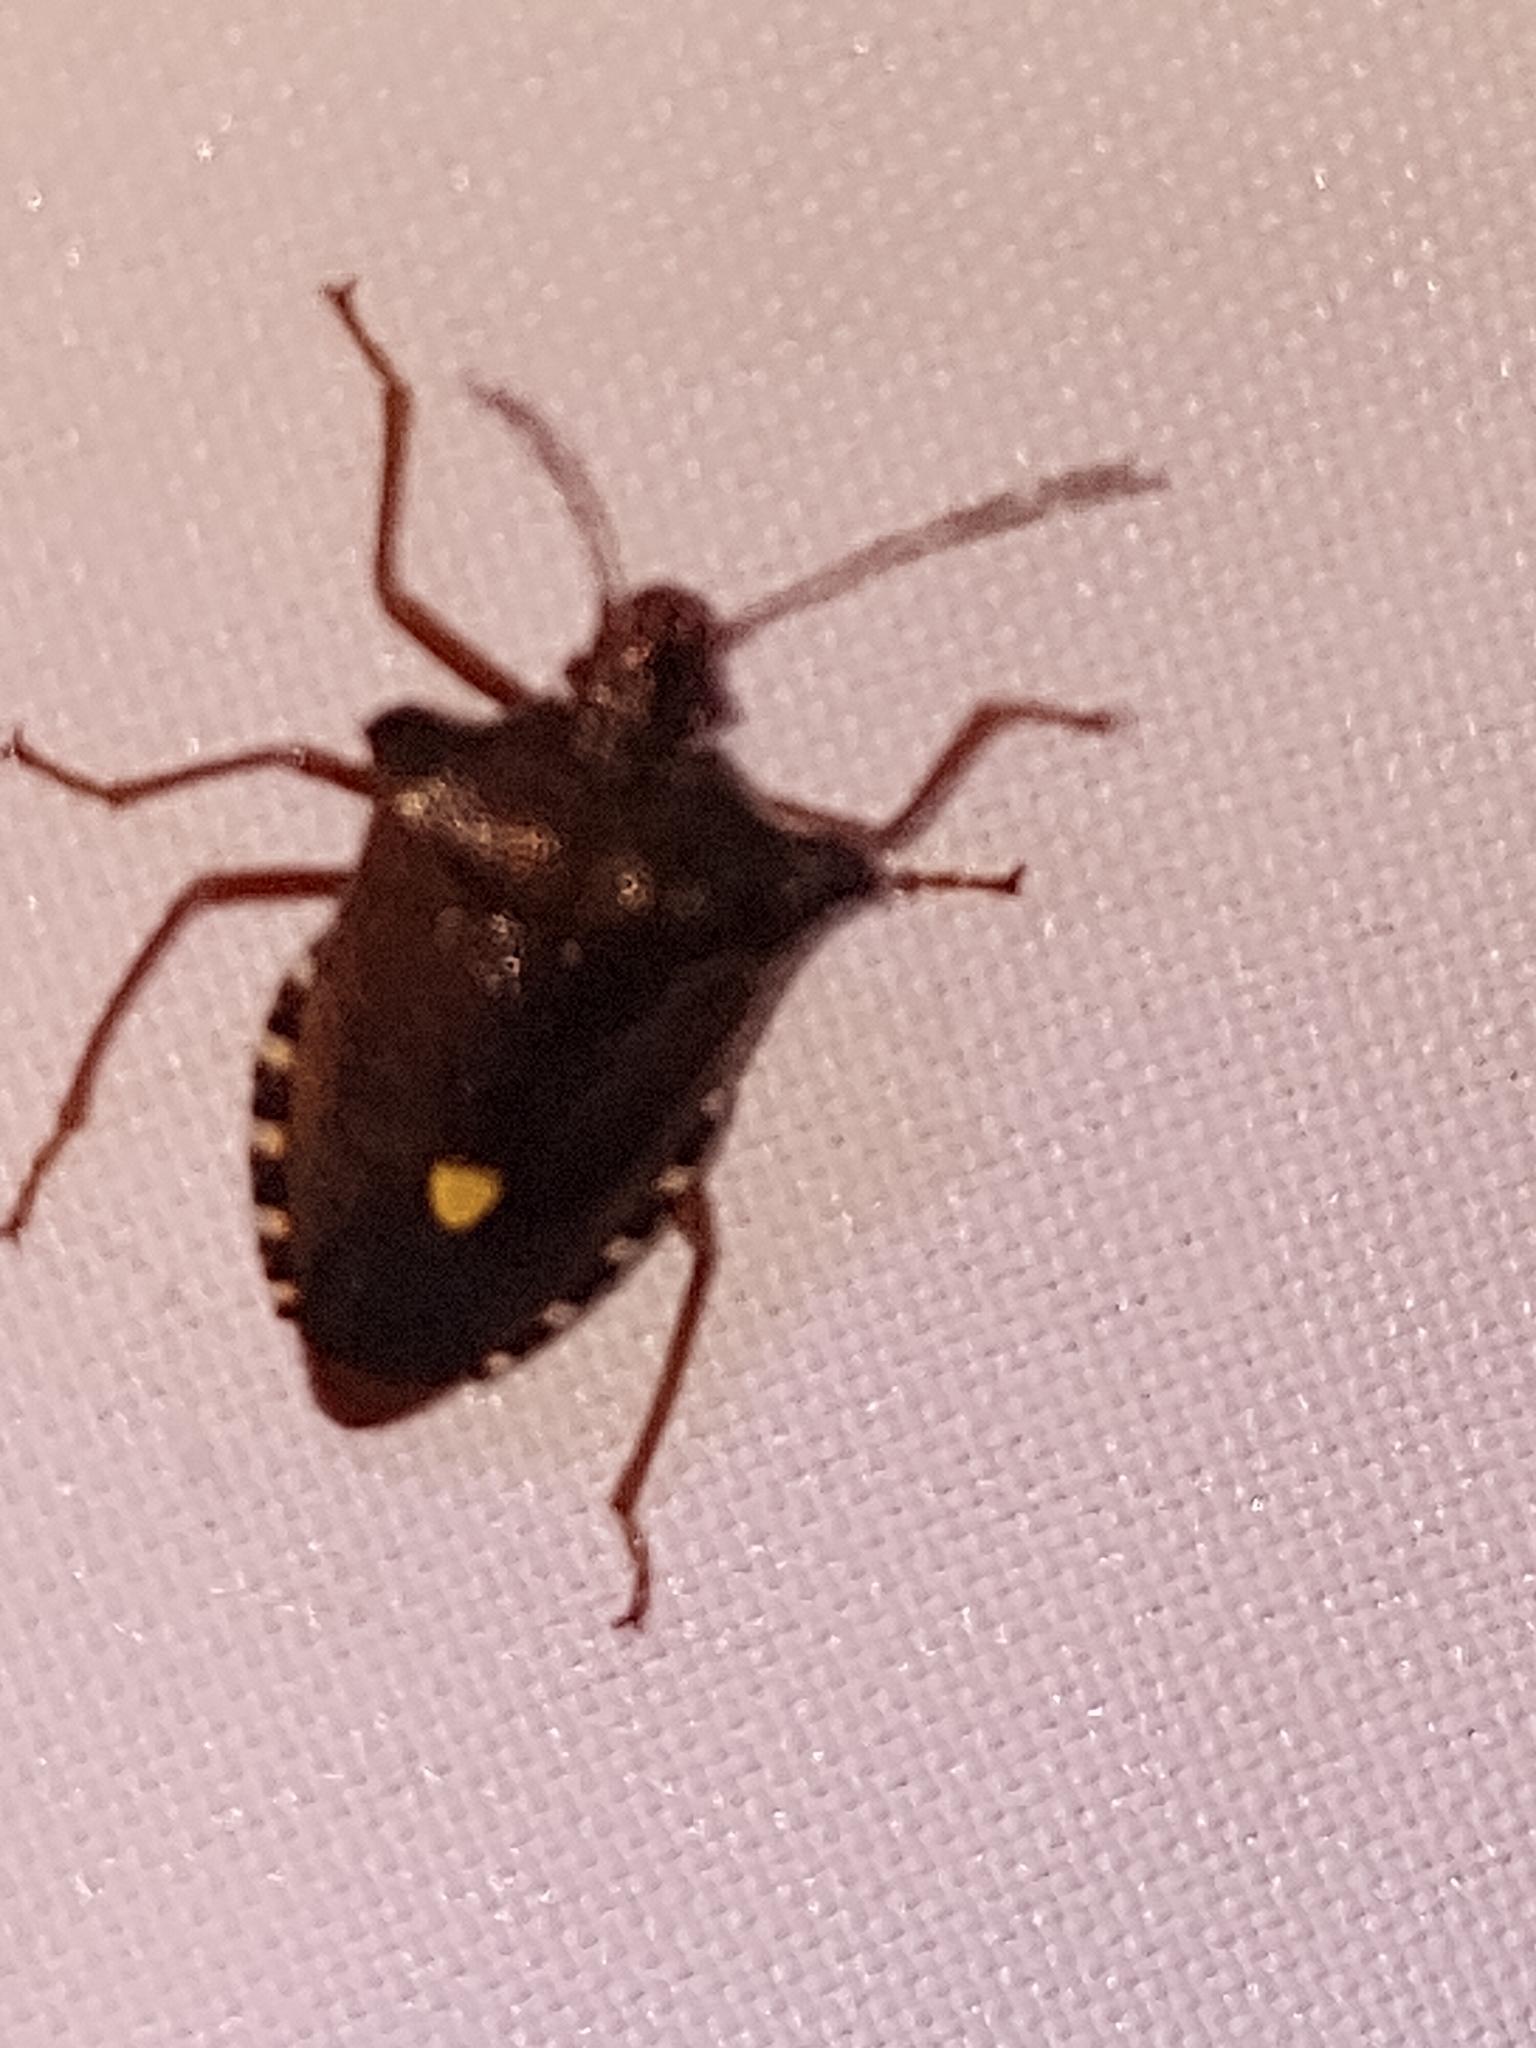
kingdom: Animalia
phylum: Arthropoda
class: Insecta
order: Hemiptera
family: Pentatomidae
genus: Pentatoma
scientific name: Pentatoma rufipes
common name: Forest bug
